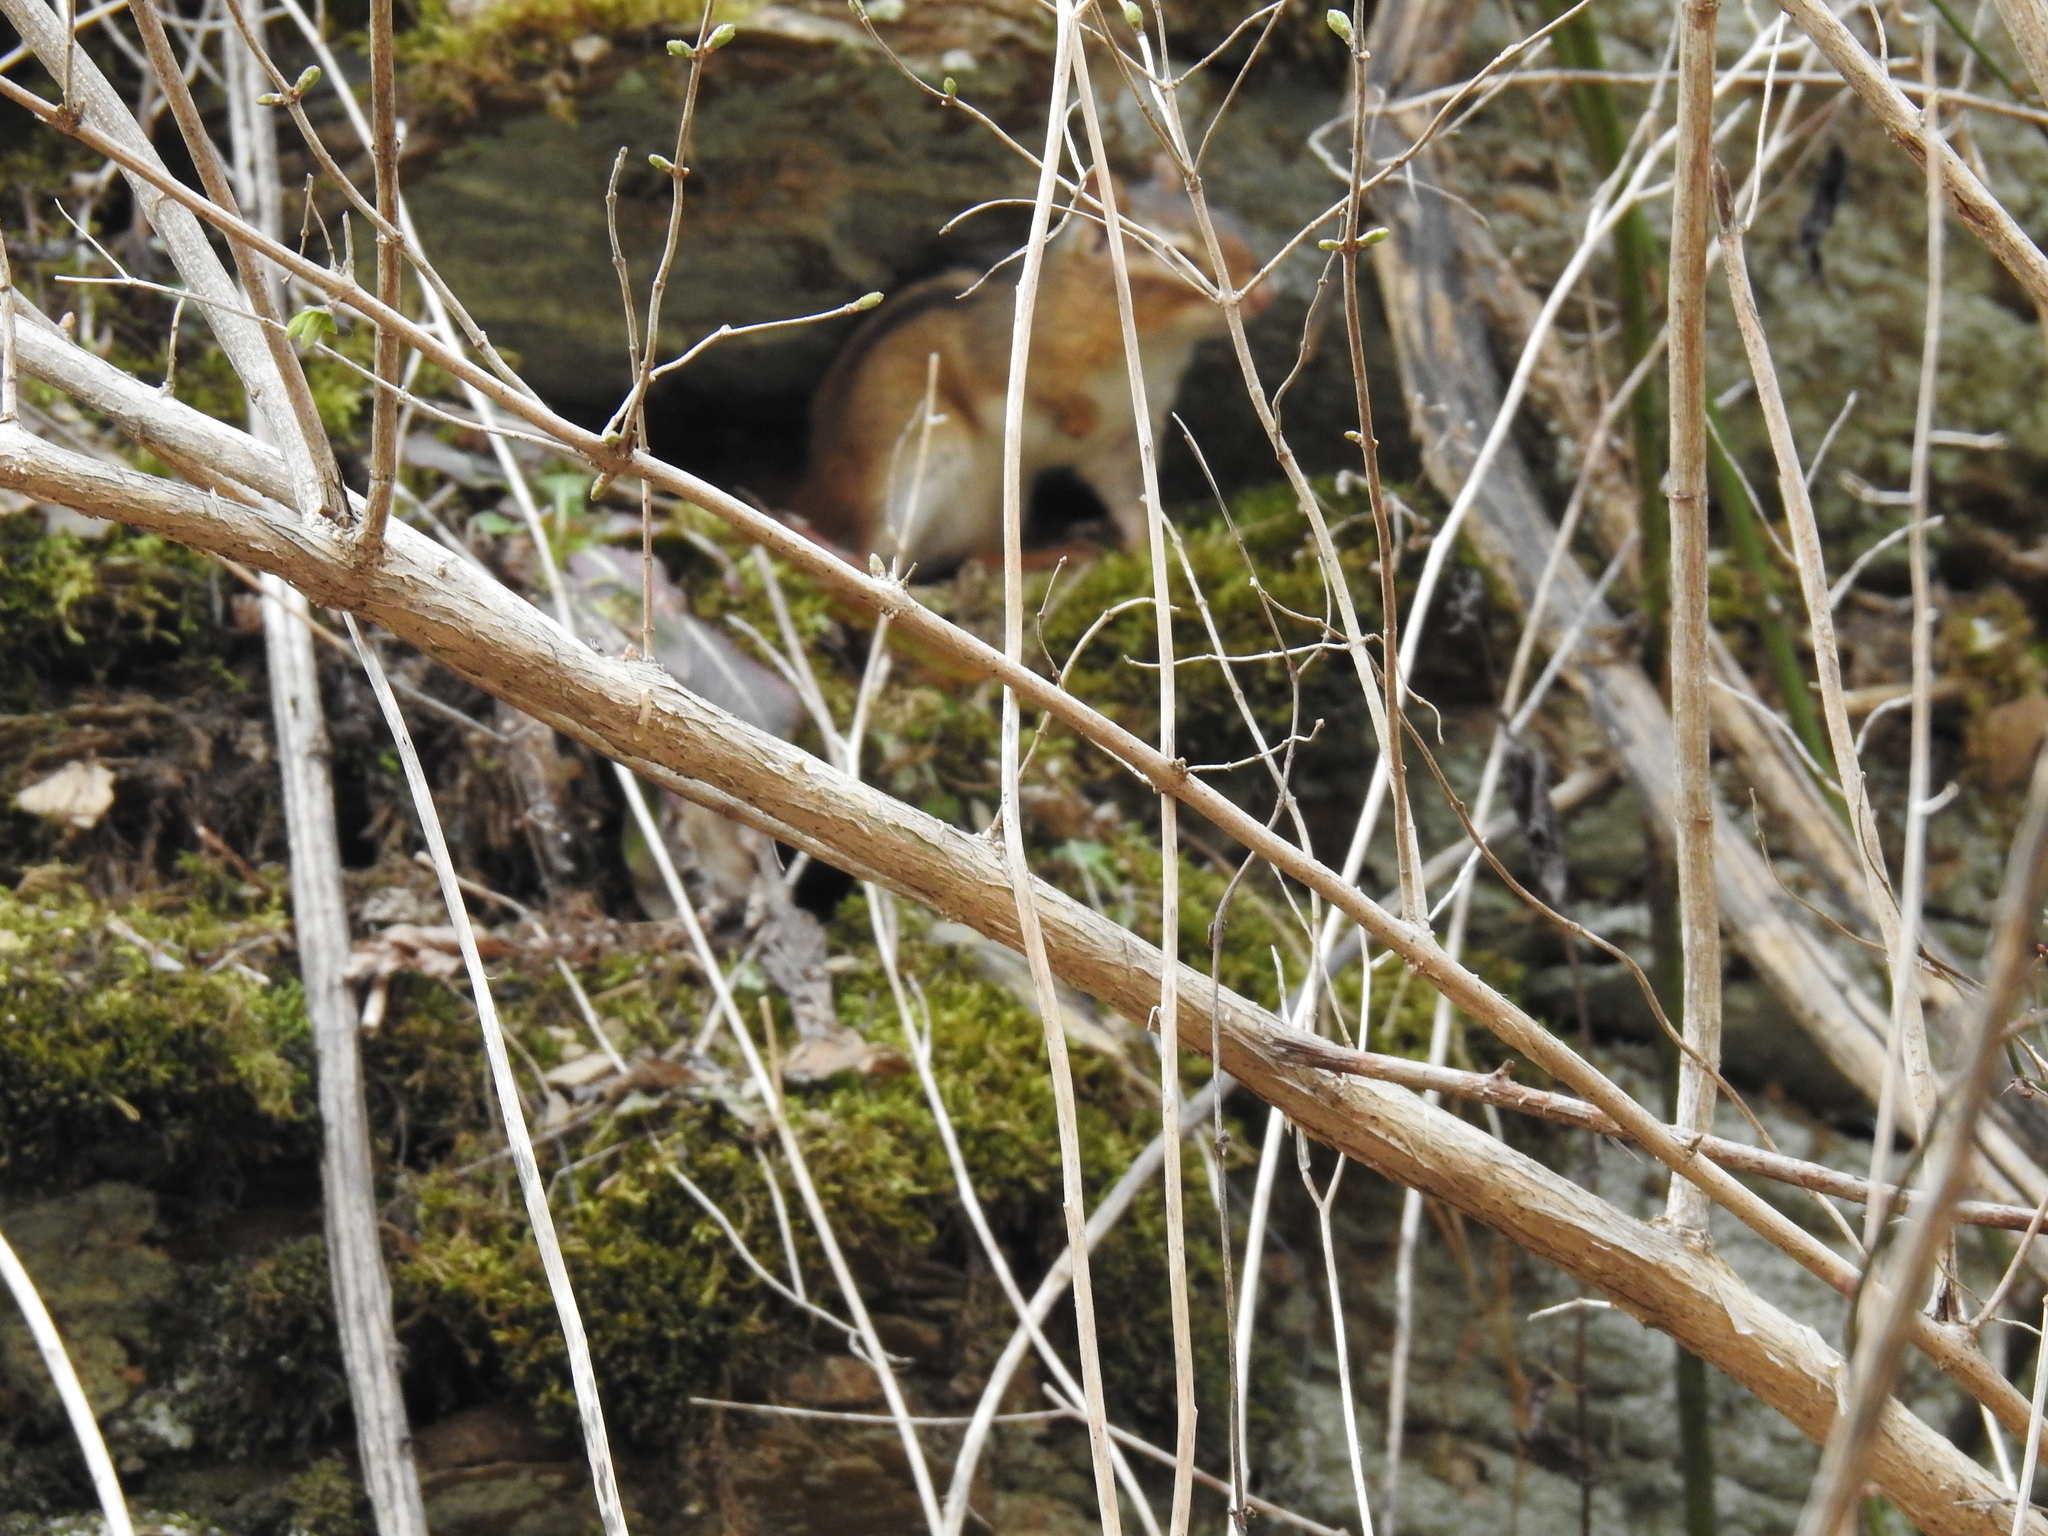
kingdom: Animalia
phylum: Chordata
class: Mammalia
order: Rodentia
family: Sciuridae
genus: Tamias
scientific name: Tamias striatus
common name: Eastern chipmunk
